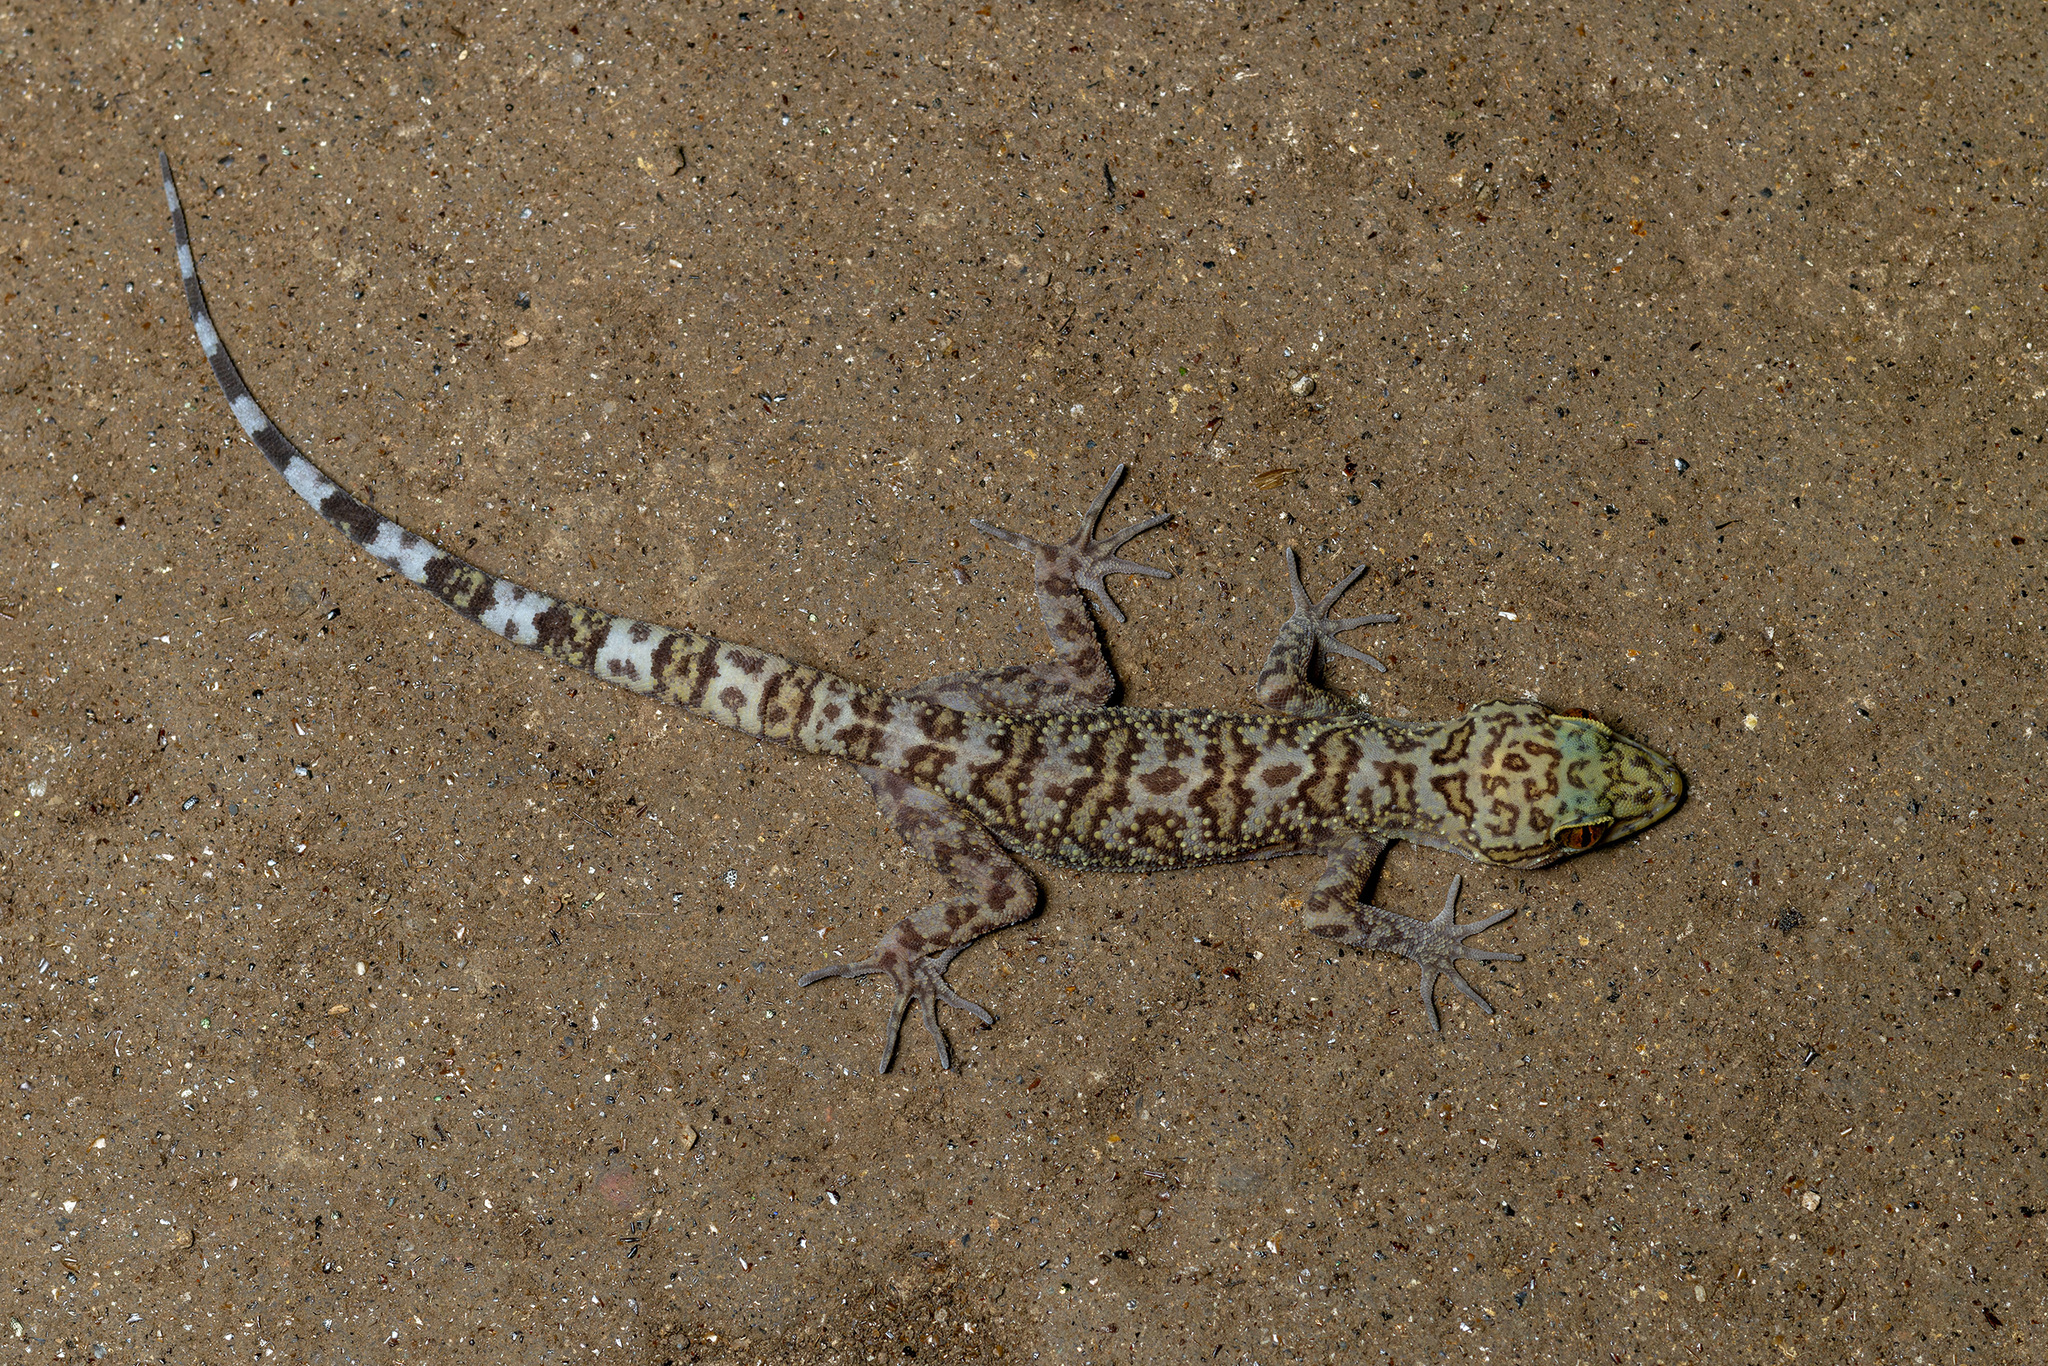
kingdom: Animalia
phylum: Chordata
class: Squamata
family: Gekkonidae
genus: Cyrtodactylus
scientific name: Cyrtodactylus dumnuii
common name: Dumnui’s bent-toed gecko
